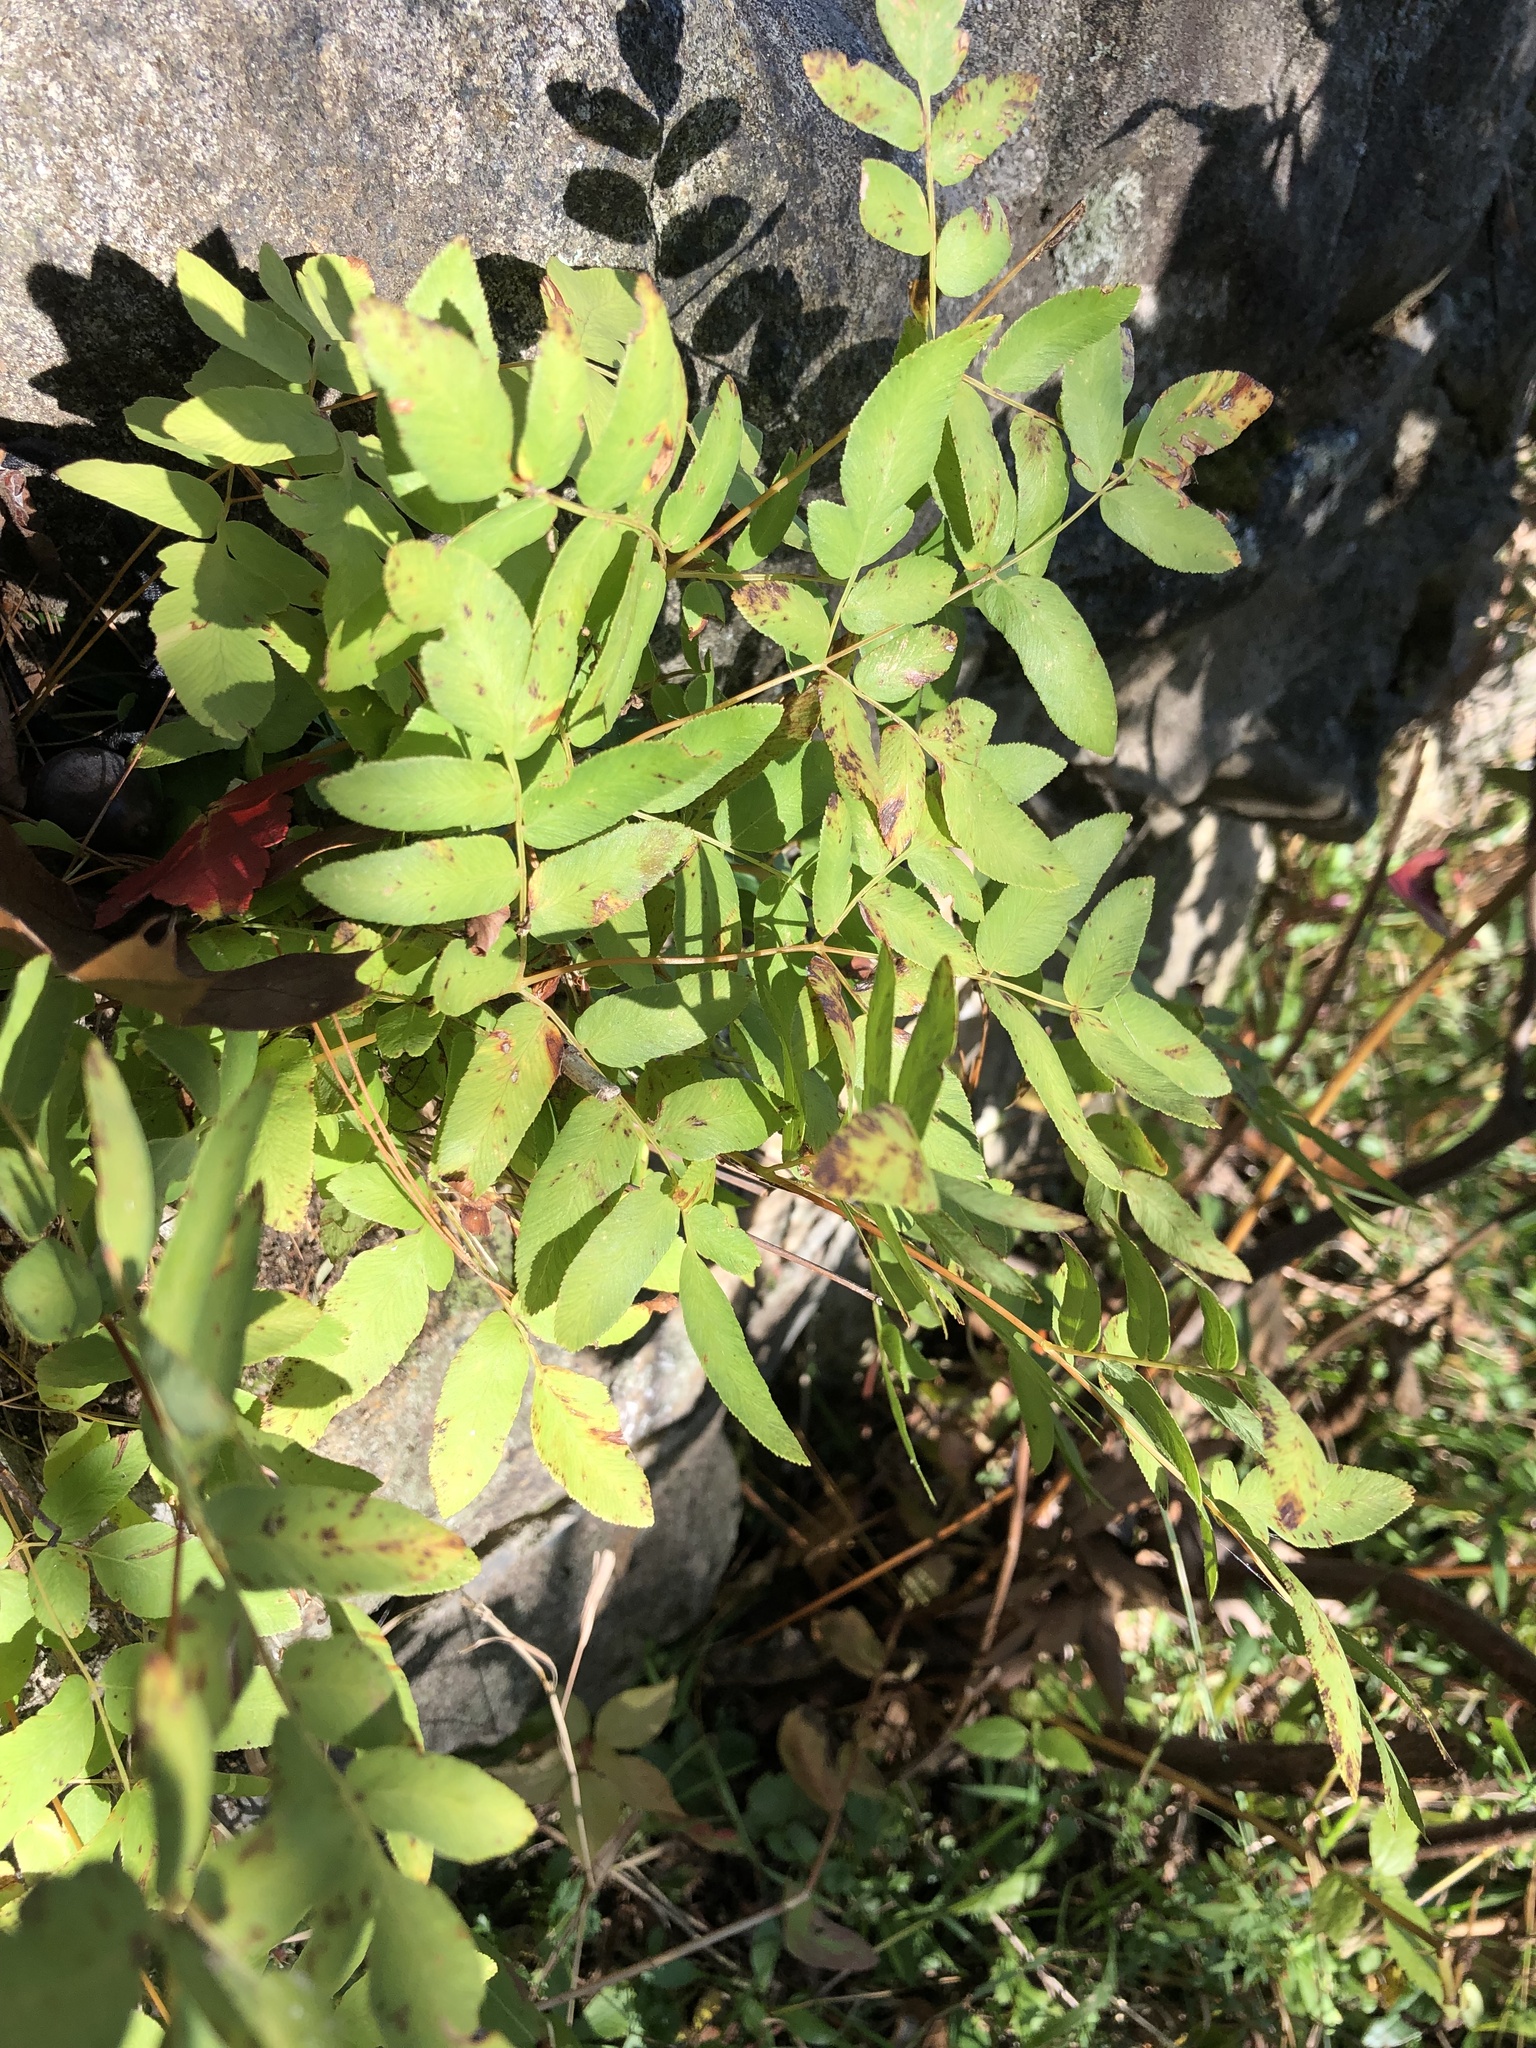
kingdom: Plantae
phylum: Tracheophyta
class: Polypodiopsida
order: Osmundales
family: Osmundaceae
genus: Osmunda
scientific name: Osmunda spectabilis
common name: American royal fern
